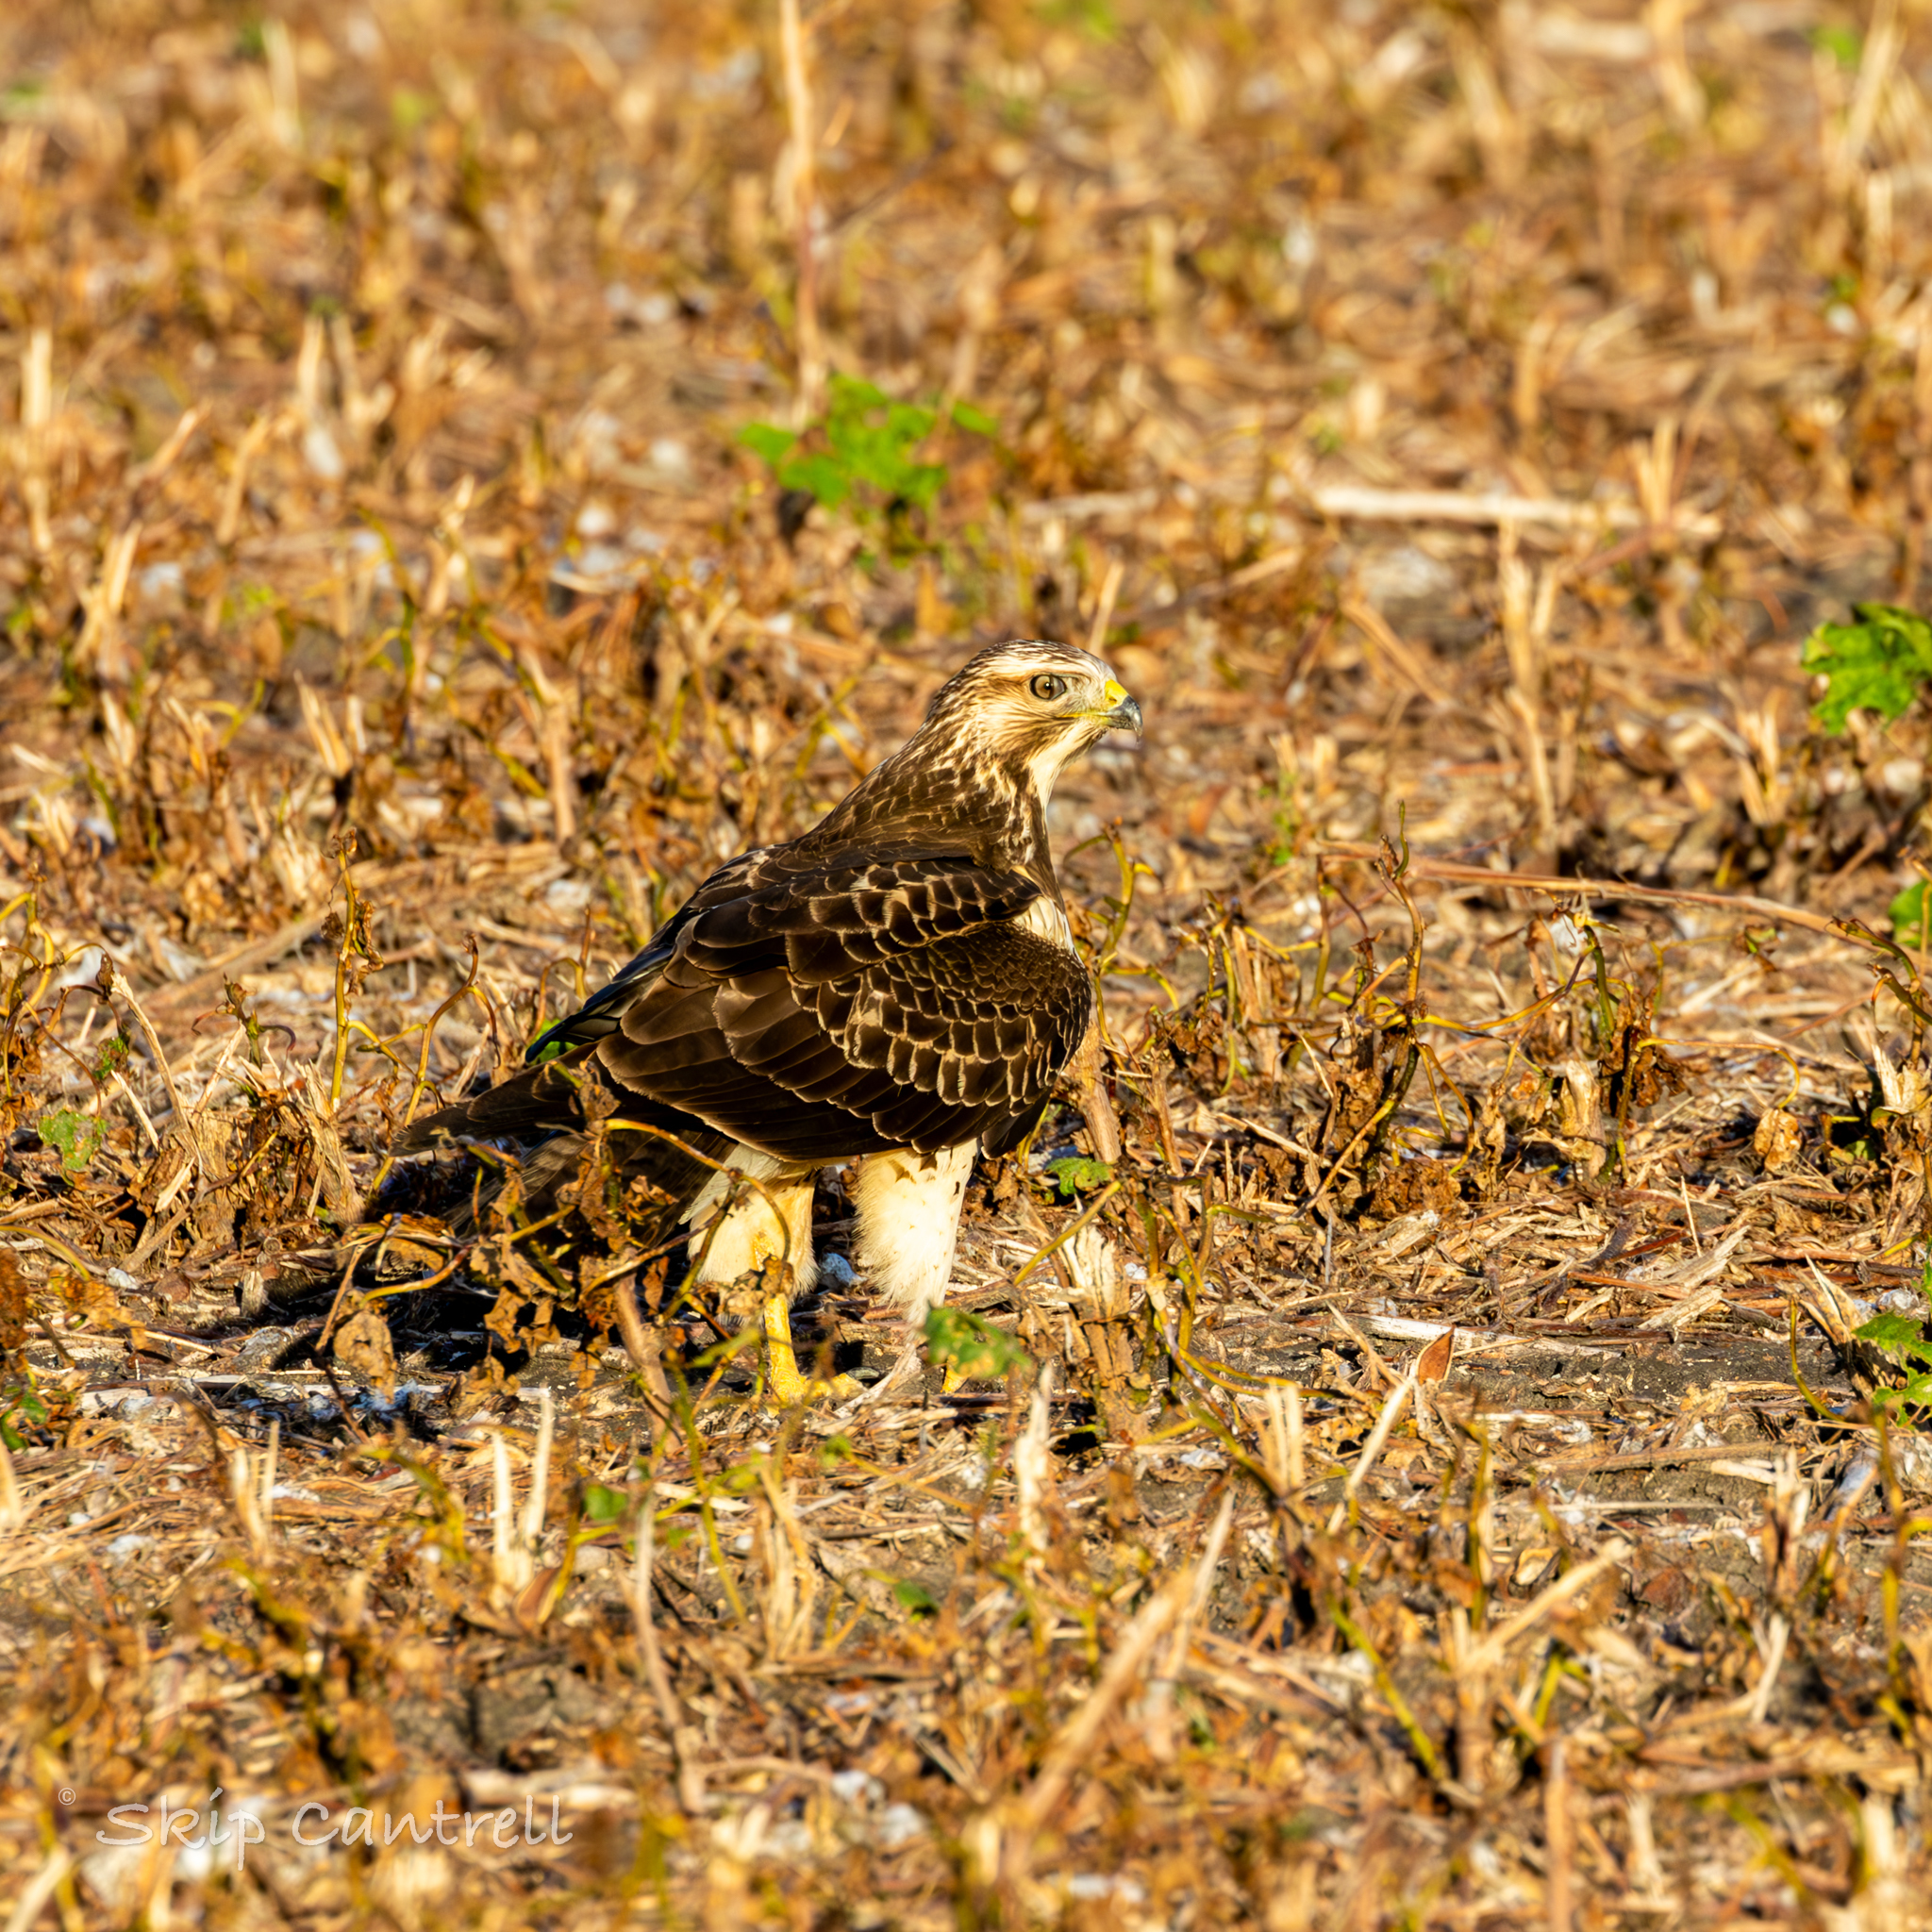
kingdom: Animalia
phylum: Chordata
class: Aves
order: Accipitriformes
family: Accipitridae
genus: Buteo
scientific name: Buteo swainsoni
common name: Swainson's hawk
